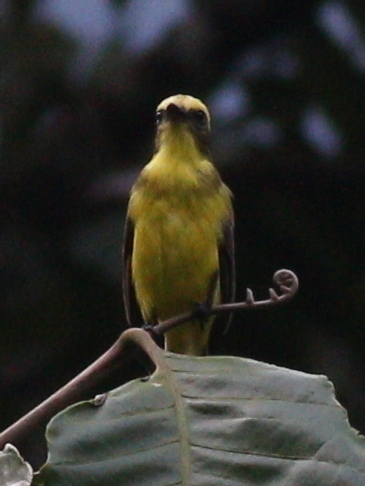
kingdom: Animalia
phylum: Chordata
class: Aves
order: Passeriformes
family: Tyrannidae
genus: Conopias
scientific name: Conopias cinchoneti
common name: Lemon-browed flycatcher
